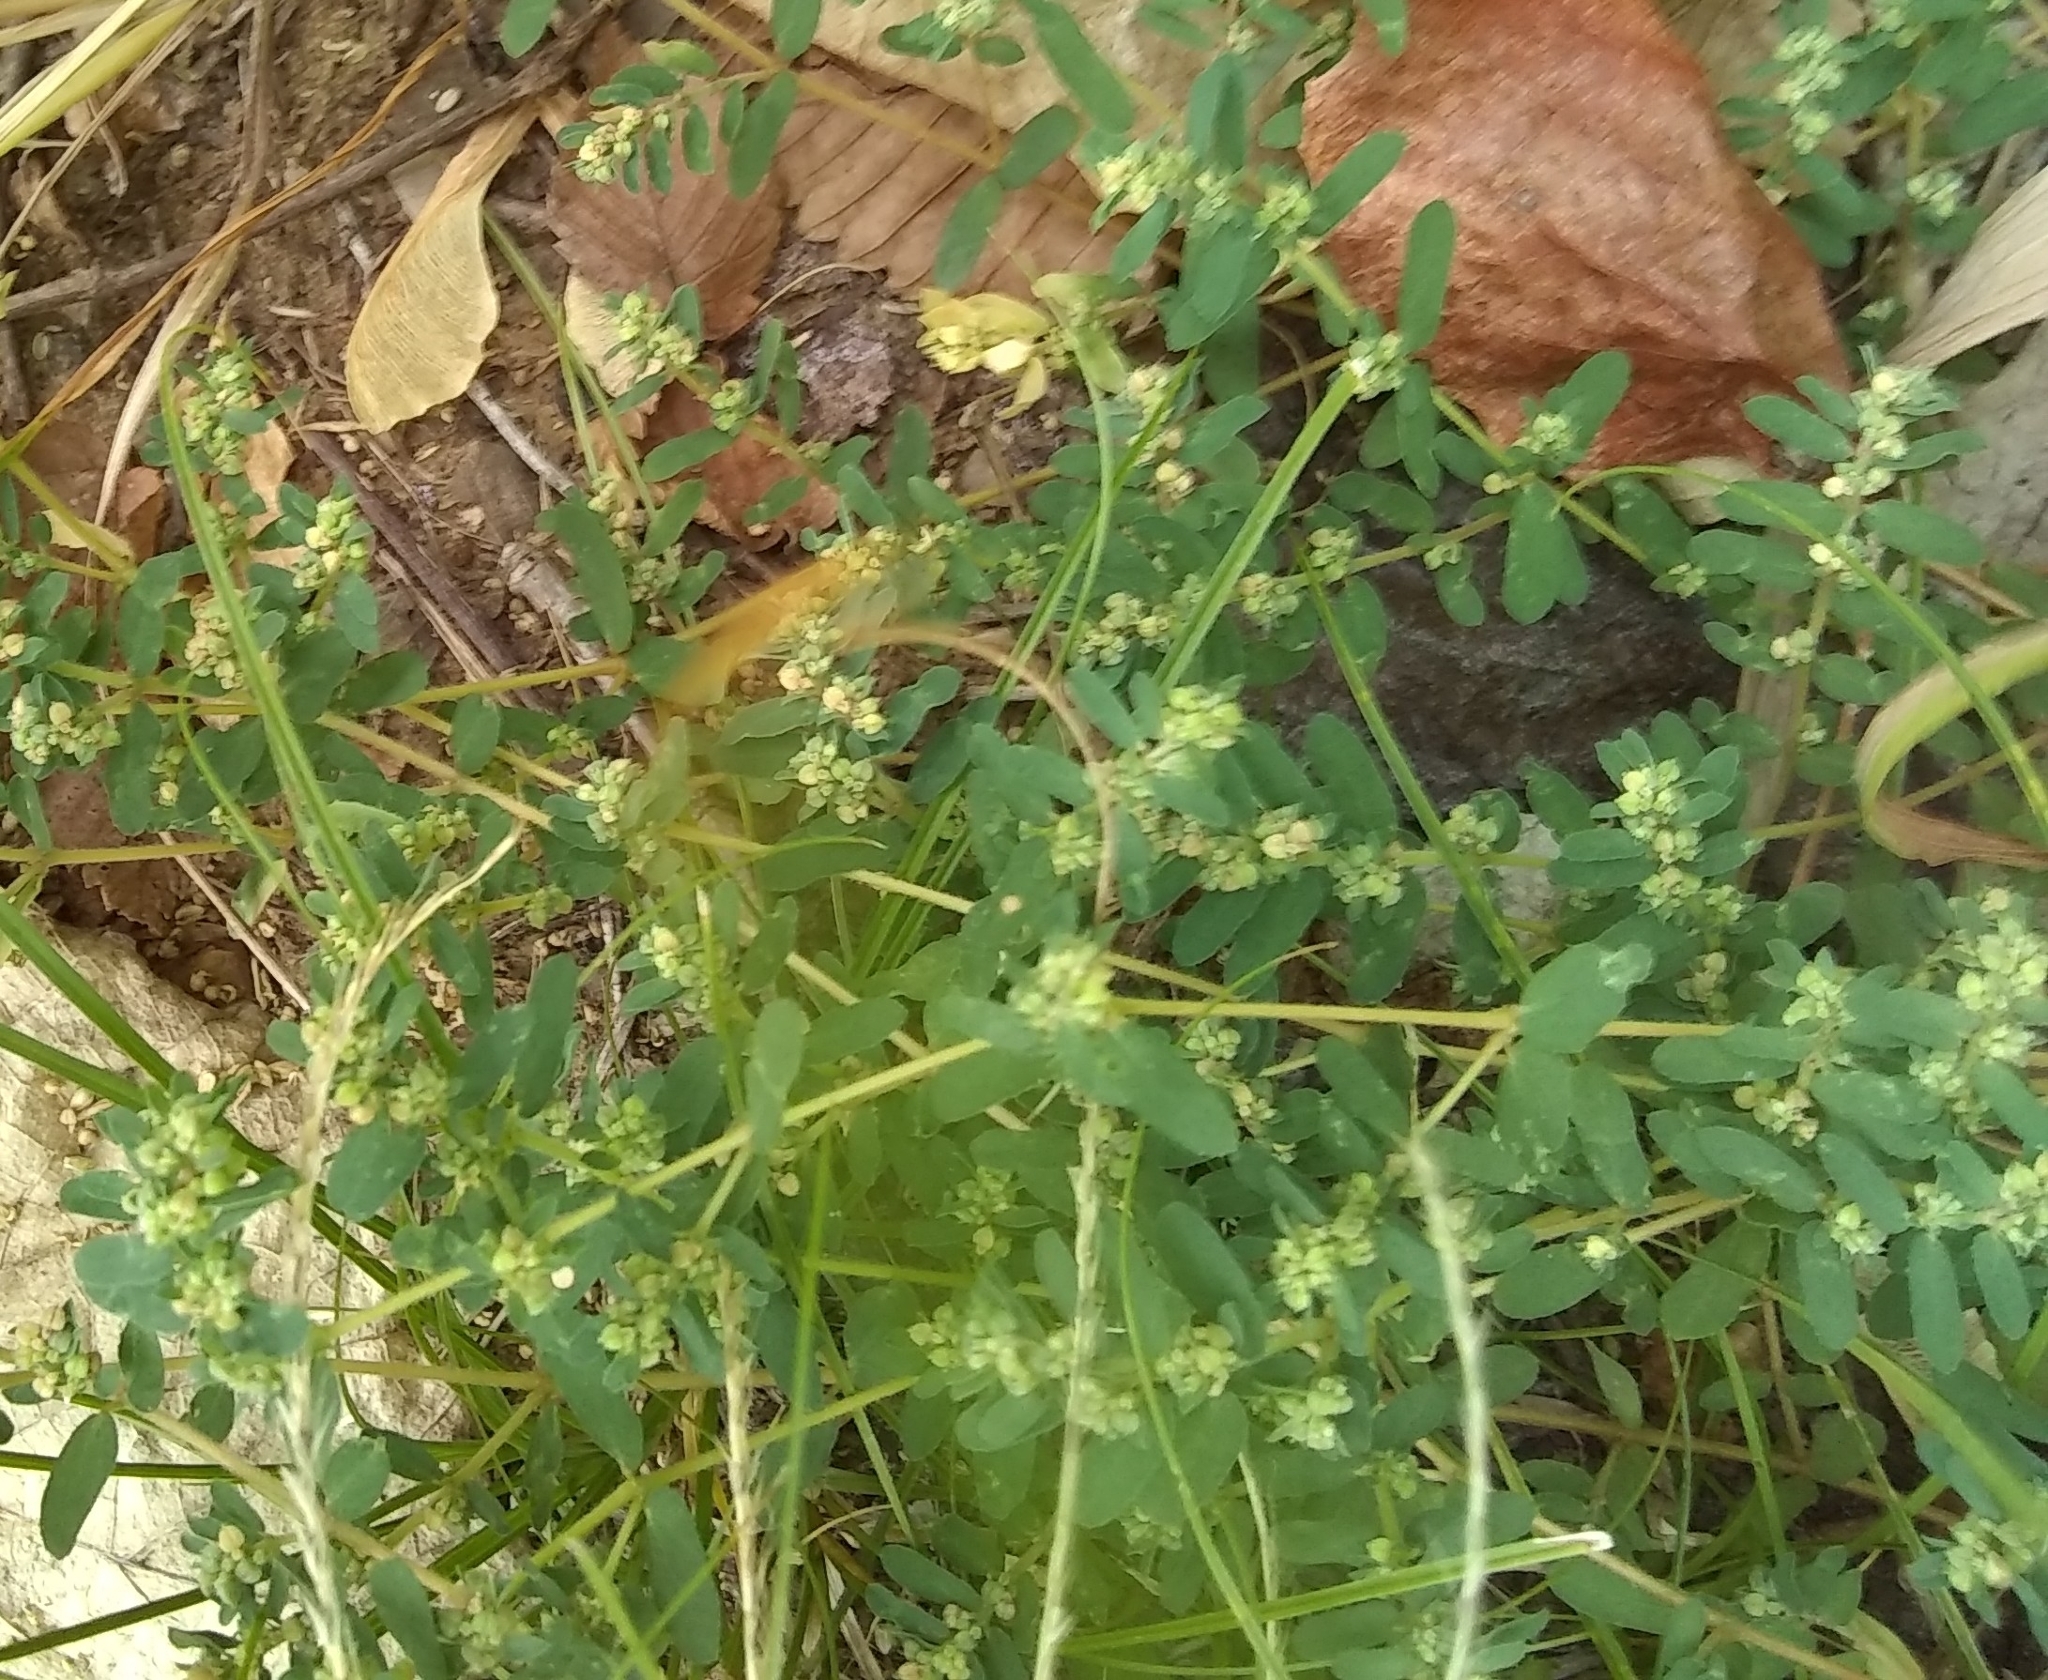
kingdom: Plantae
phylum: Tracheophyta
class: Magnoliopsida
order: Malpighiales
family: Euphorbiaceae
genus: Euphorbia
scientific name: Euphorbia maculata
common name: Spotted spurge
